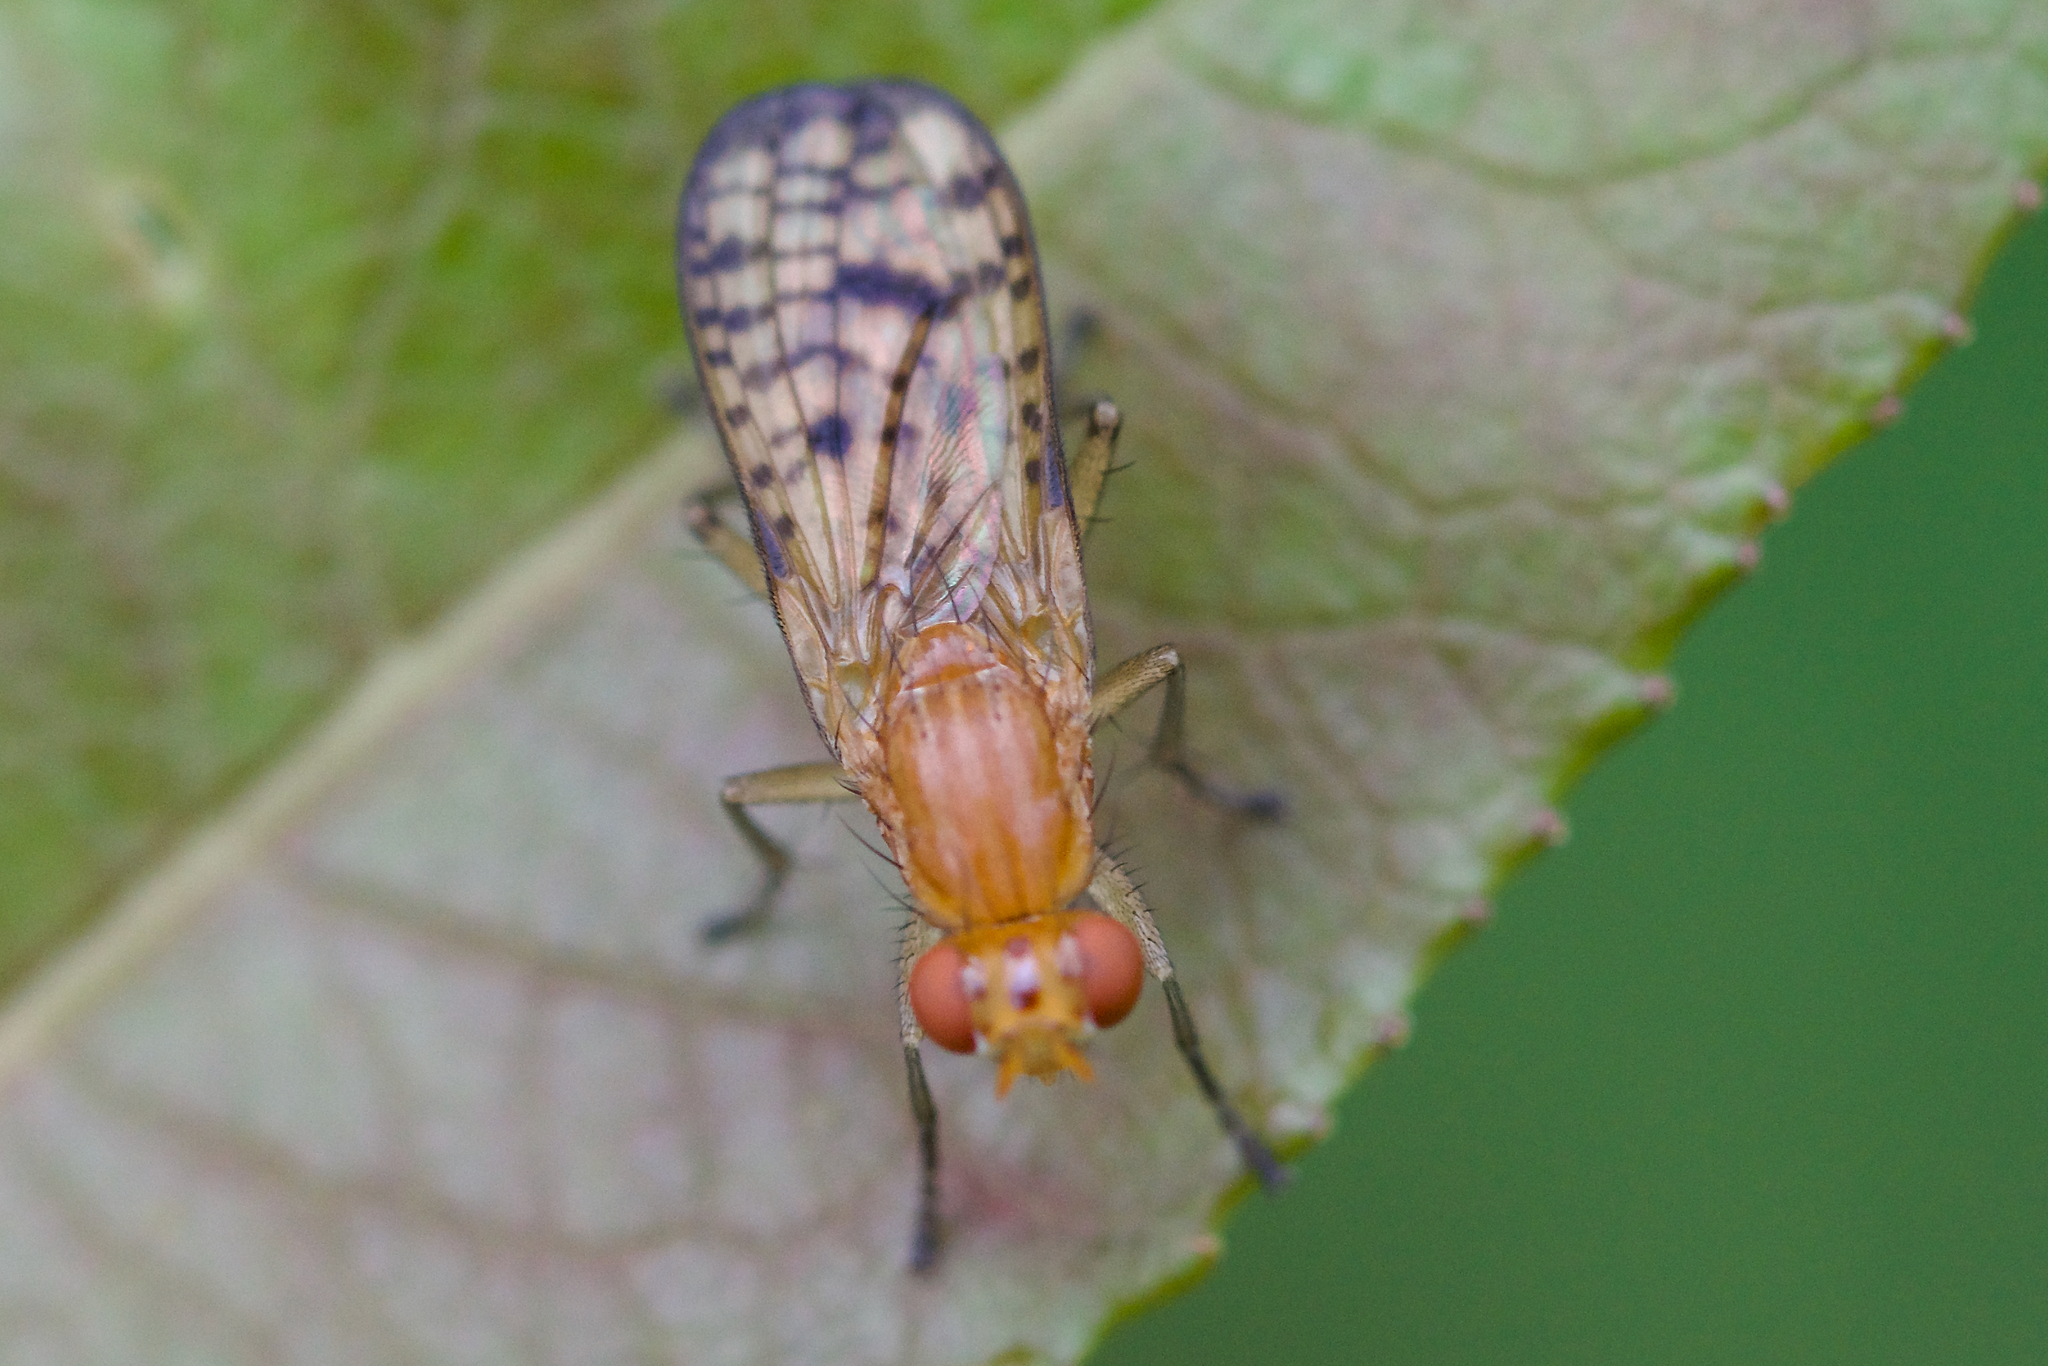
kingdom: Animalia
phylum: Arthropoda
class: Insecta
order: Diptera
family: Sciomyzidae
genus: Tetanocera
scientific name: Tetanocera valida
